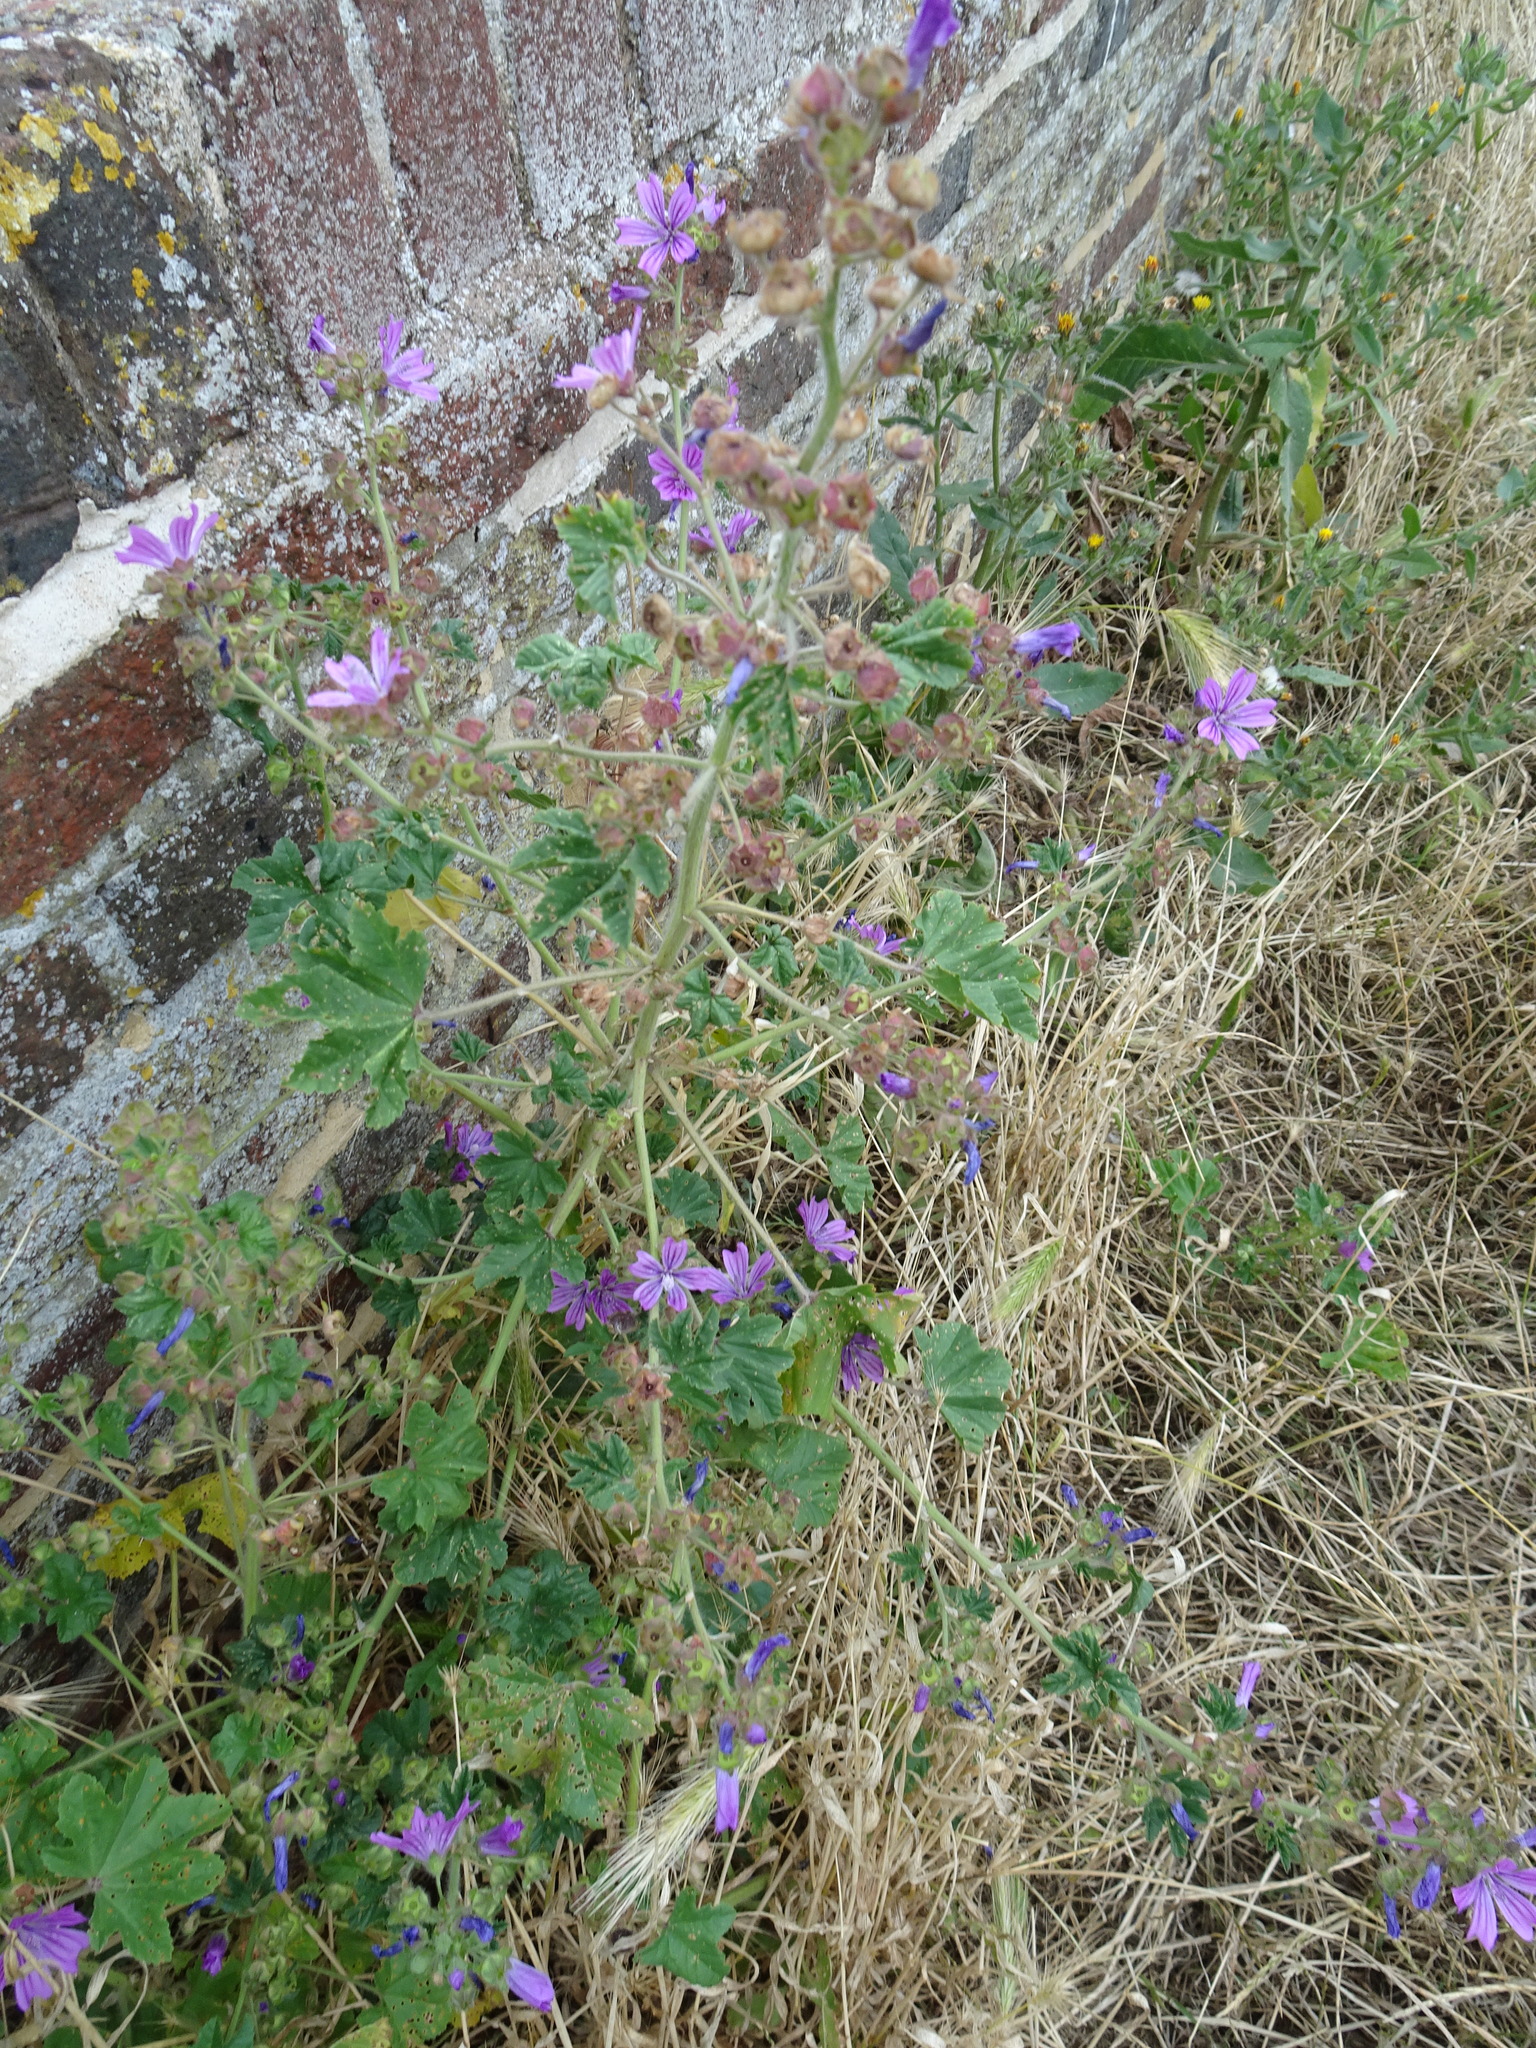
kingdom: Plantae
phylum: Tracheophyta
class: Magnoliopsida
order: Malvales
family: Malvaceae
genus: Malva
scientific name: Malva sylvestris
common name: Common mallow
